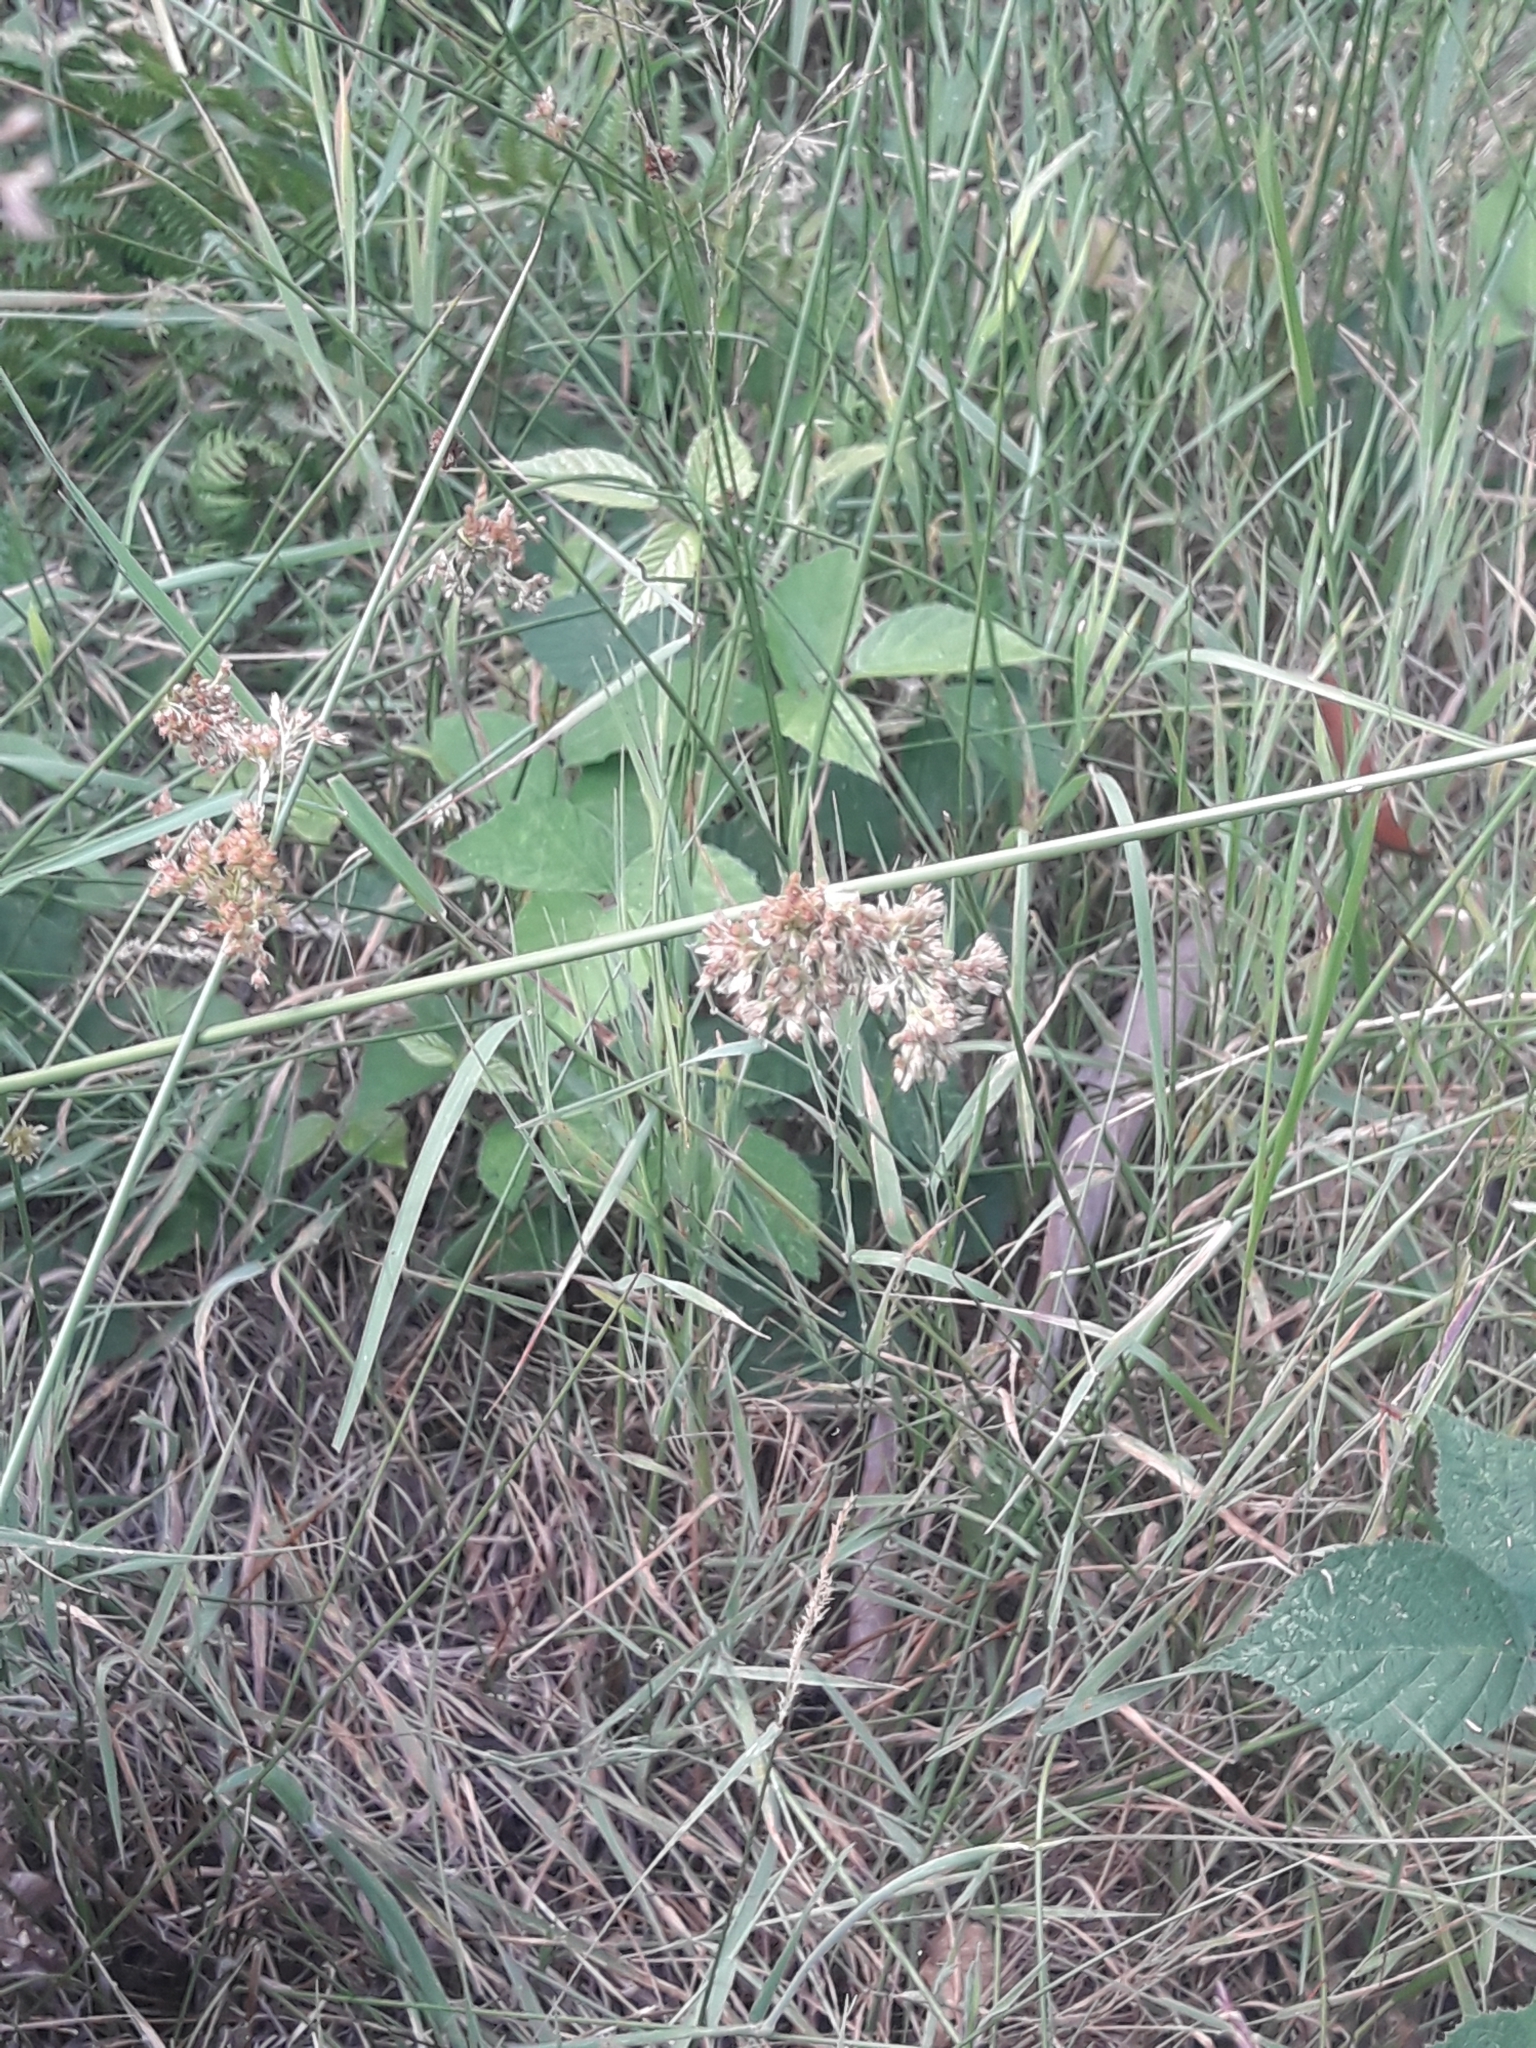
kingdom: Plantae
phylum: Tracheophyta
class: Liliopsida
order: Poales
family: Juncaceae
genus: Juncus
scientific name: Juncus effusus
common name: Soft rush
